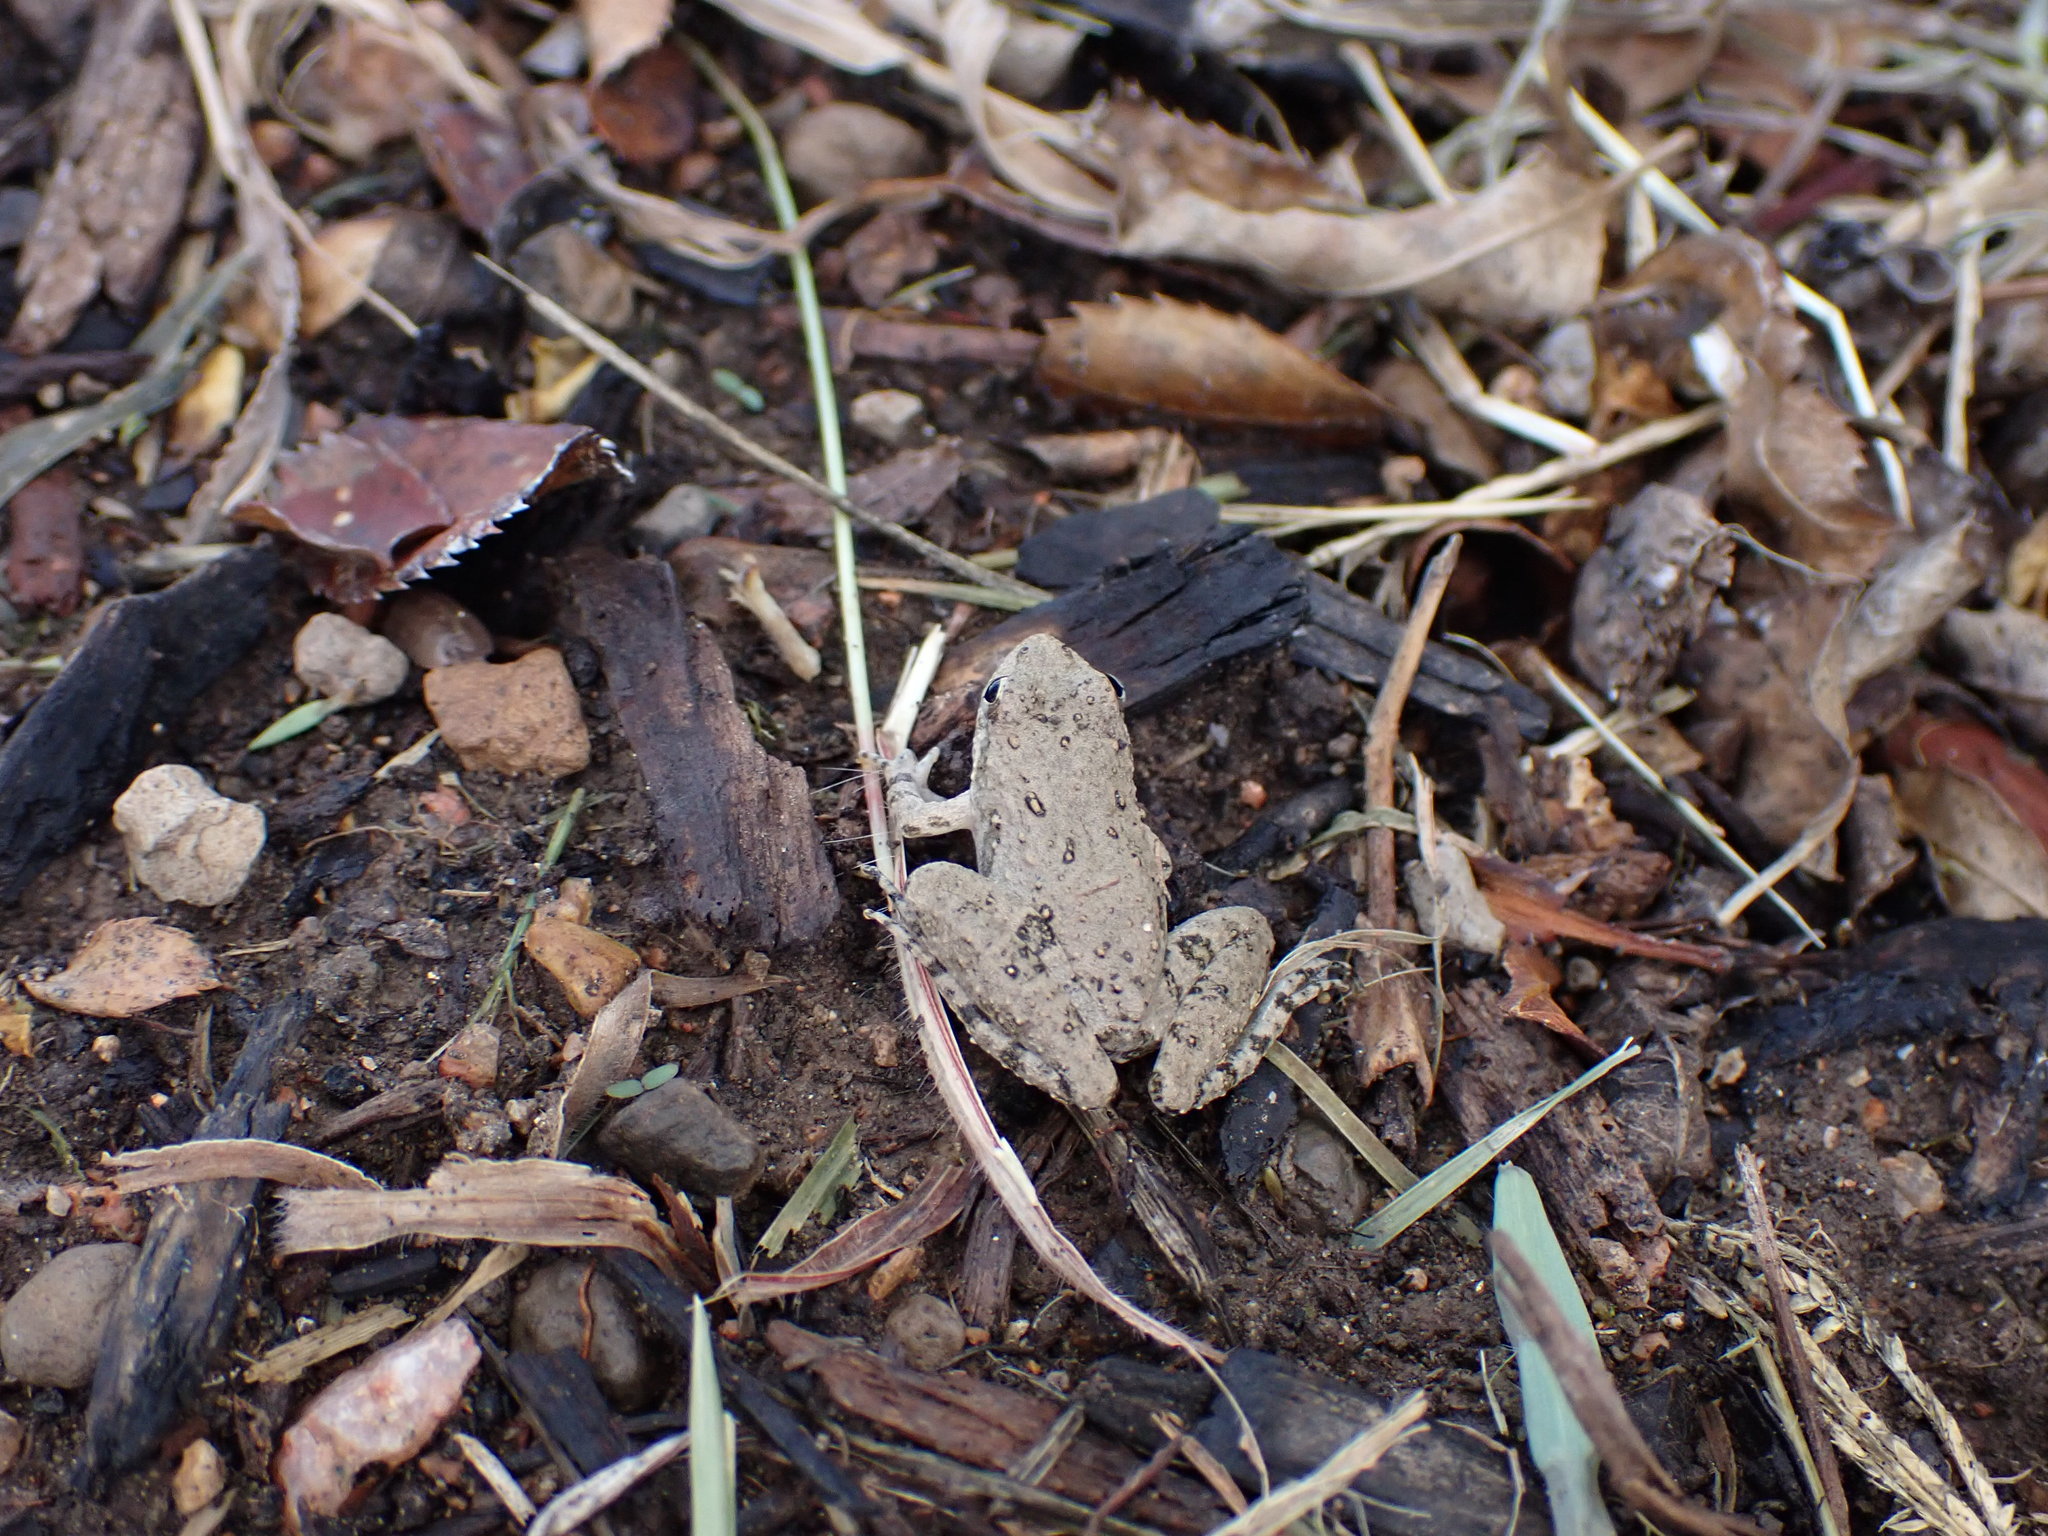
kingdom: Animalia
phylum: Chordata
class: Amphibia
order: Anura
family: Hylidae
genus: Acris
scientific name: Acris blanchardi
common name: Blanchard's cricket frog
